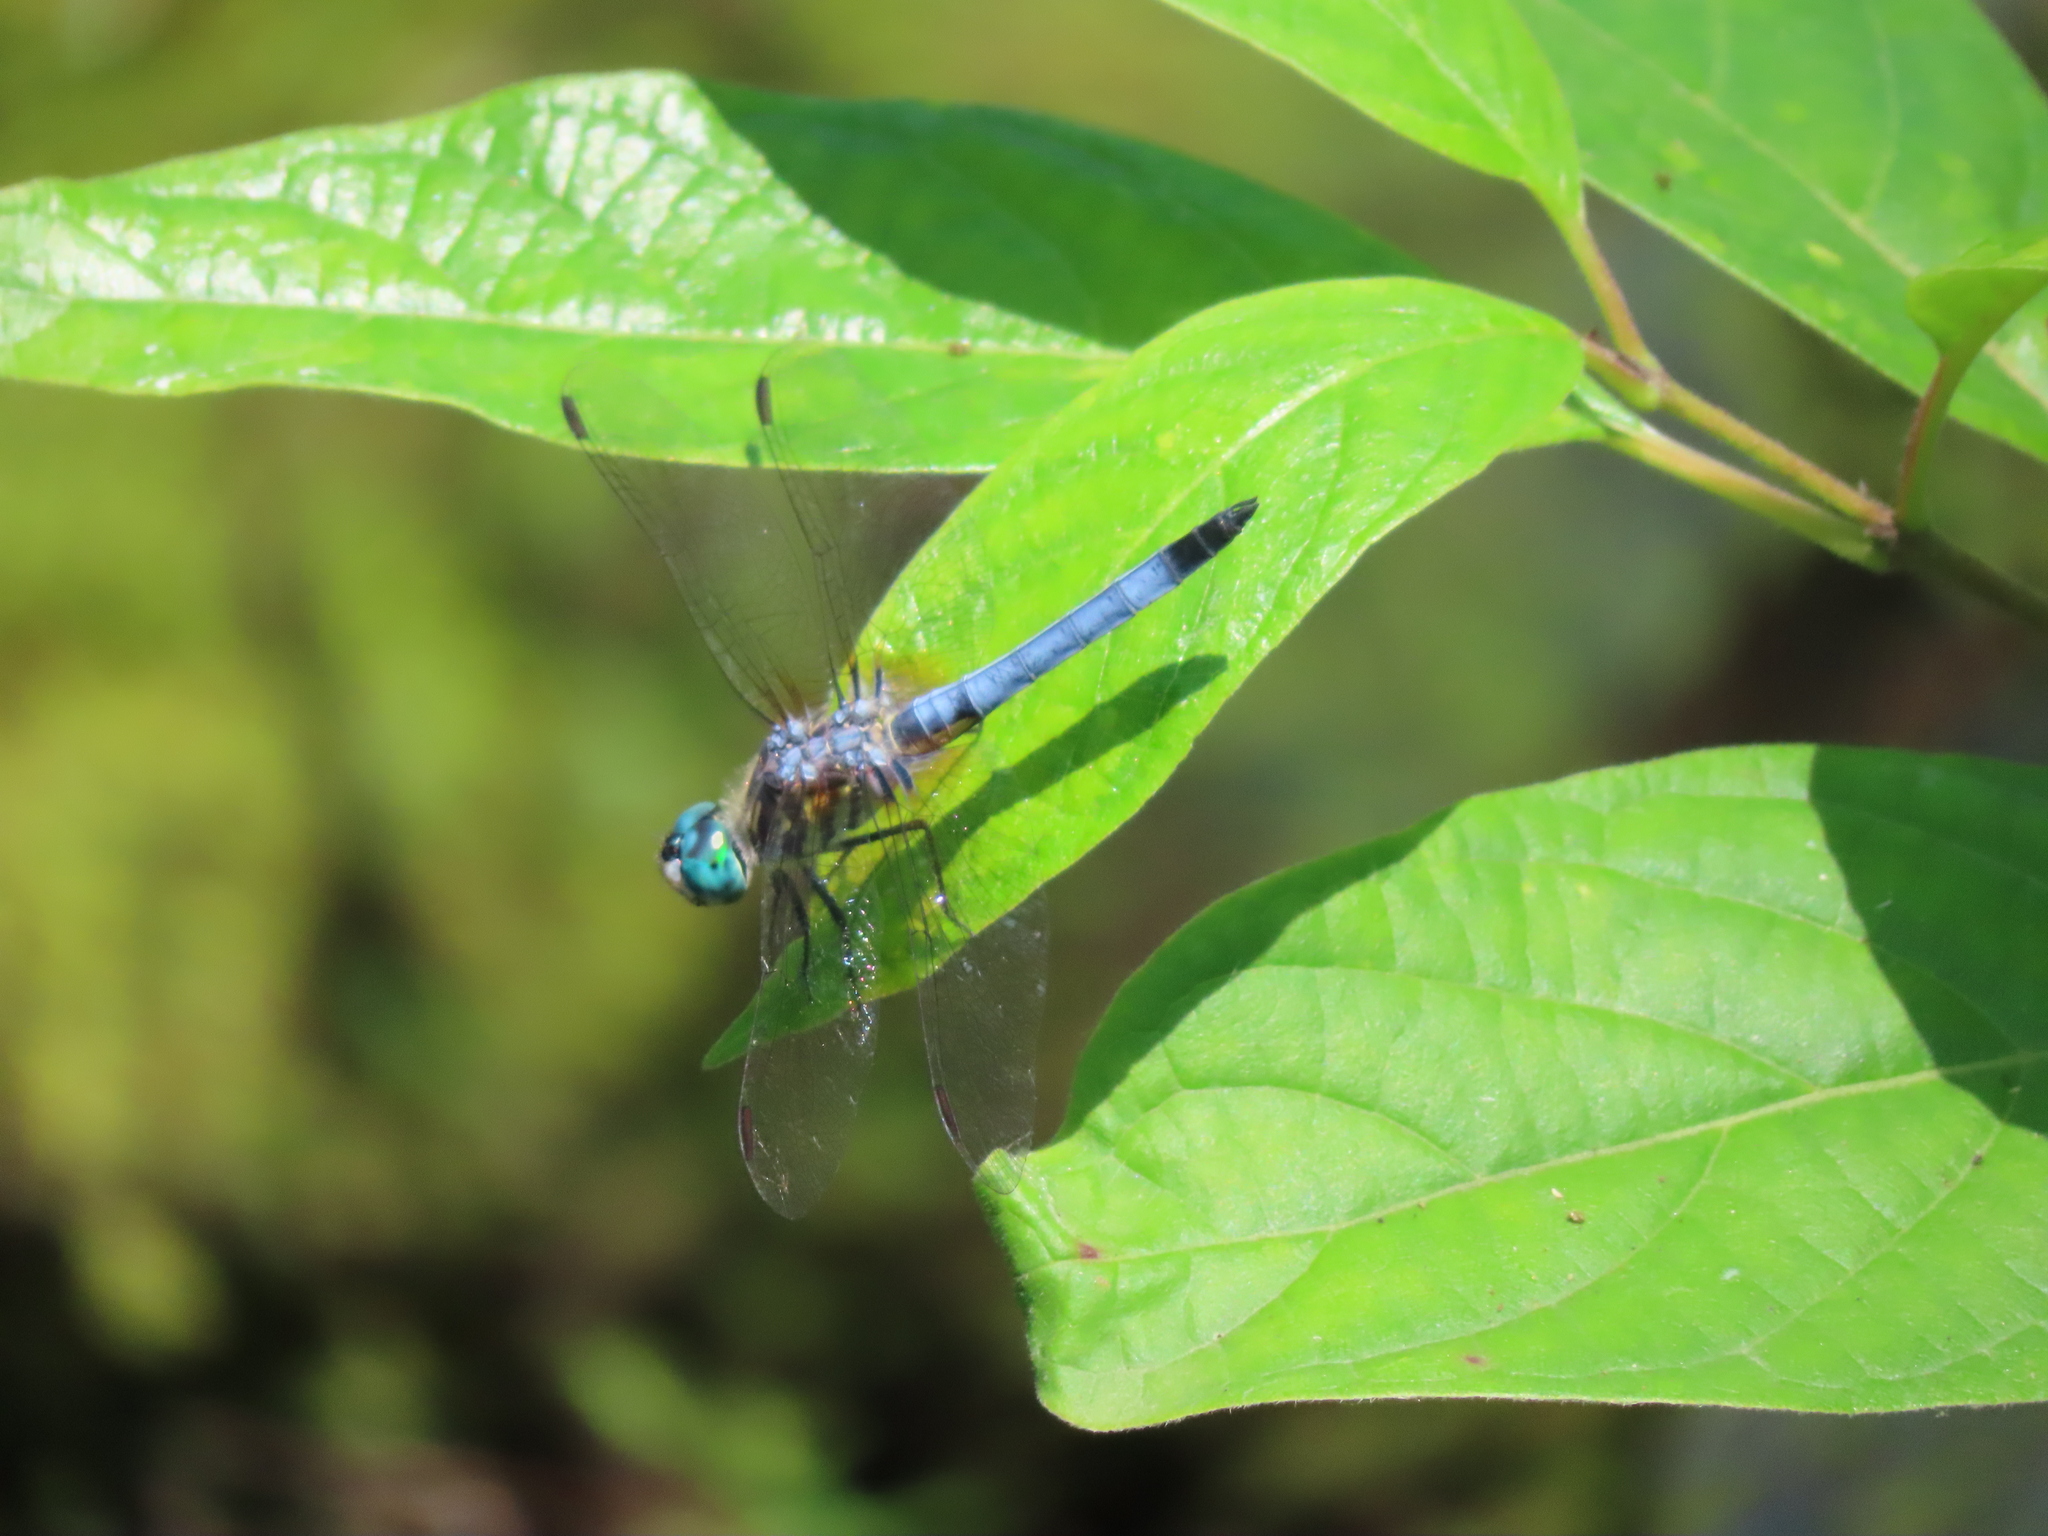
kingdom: Animalia
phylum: Arthropoda
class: Insecta
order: Odonata
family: Libellulidae
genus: Pachydiplax
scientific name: Pachydiplax longipennis
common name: Blue dasher
